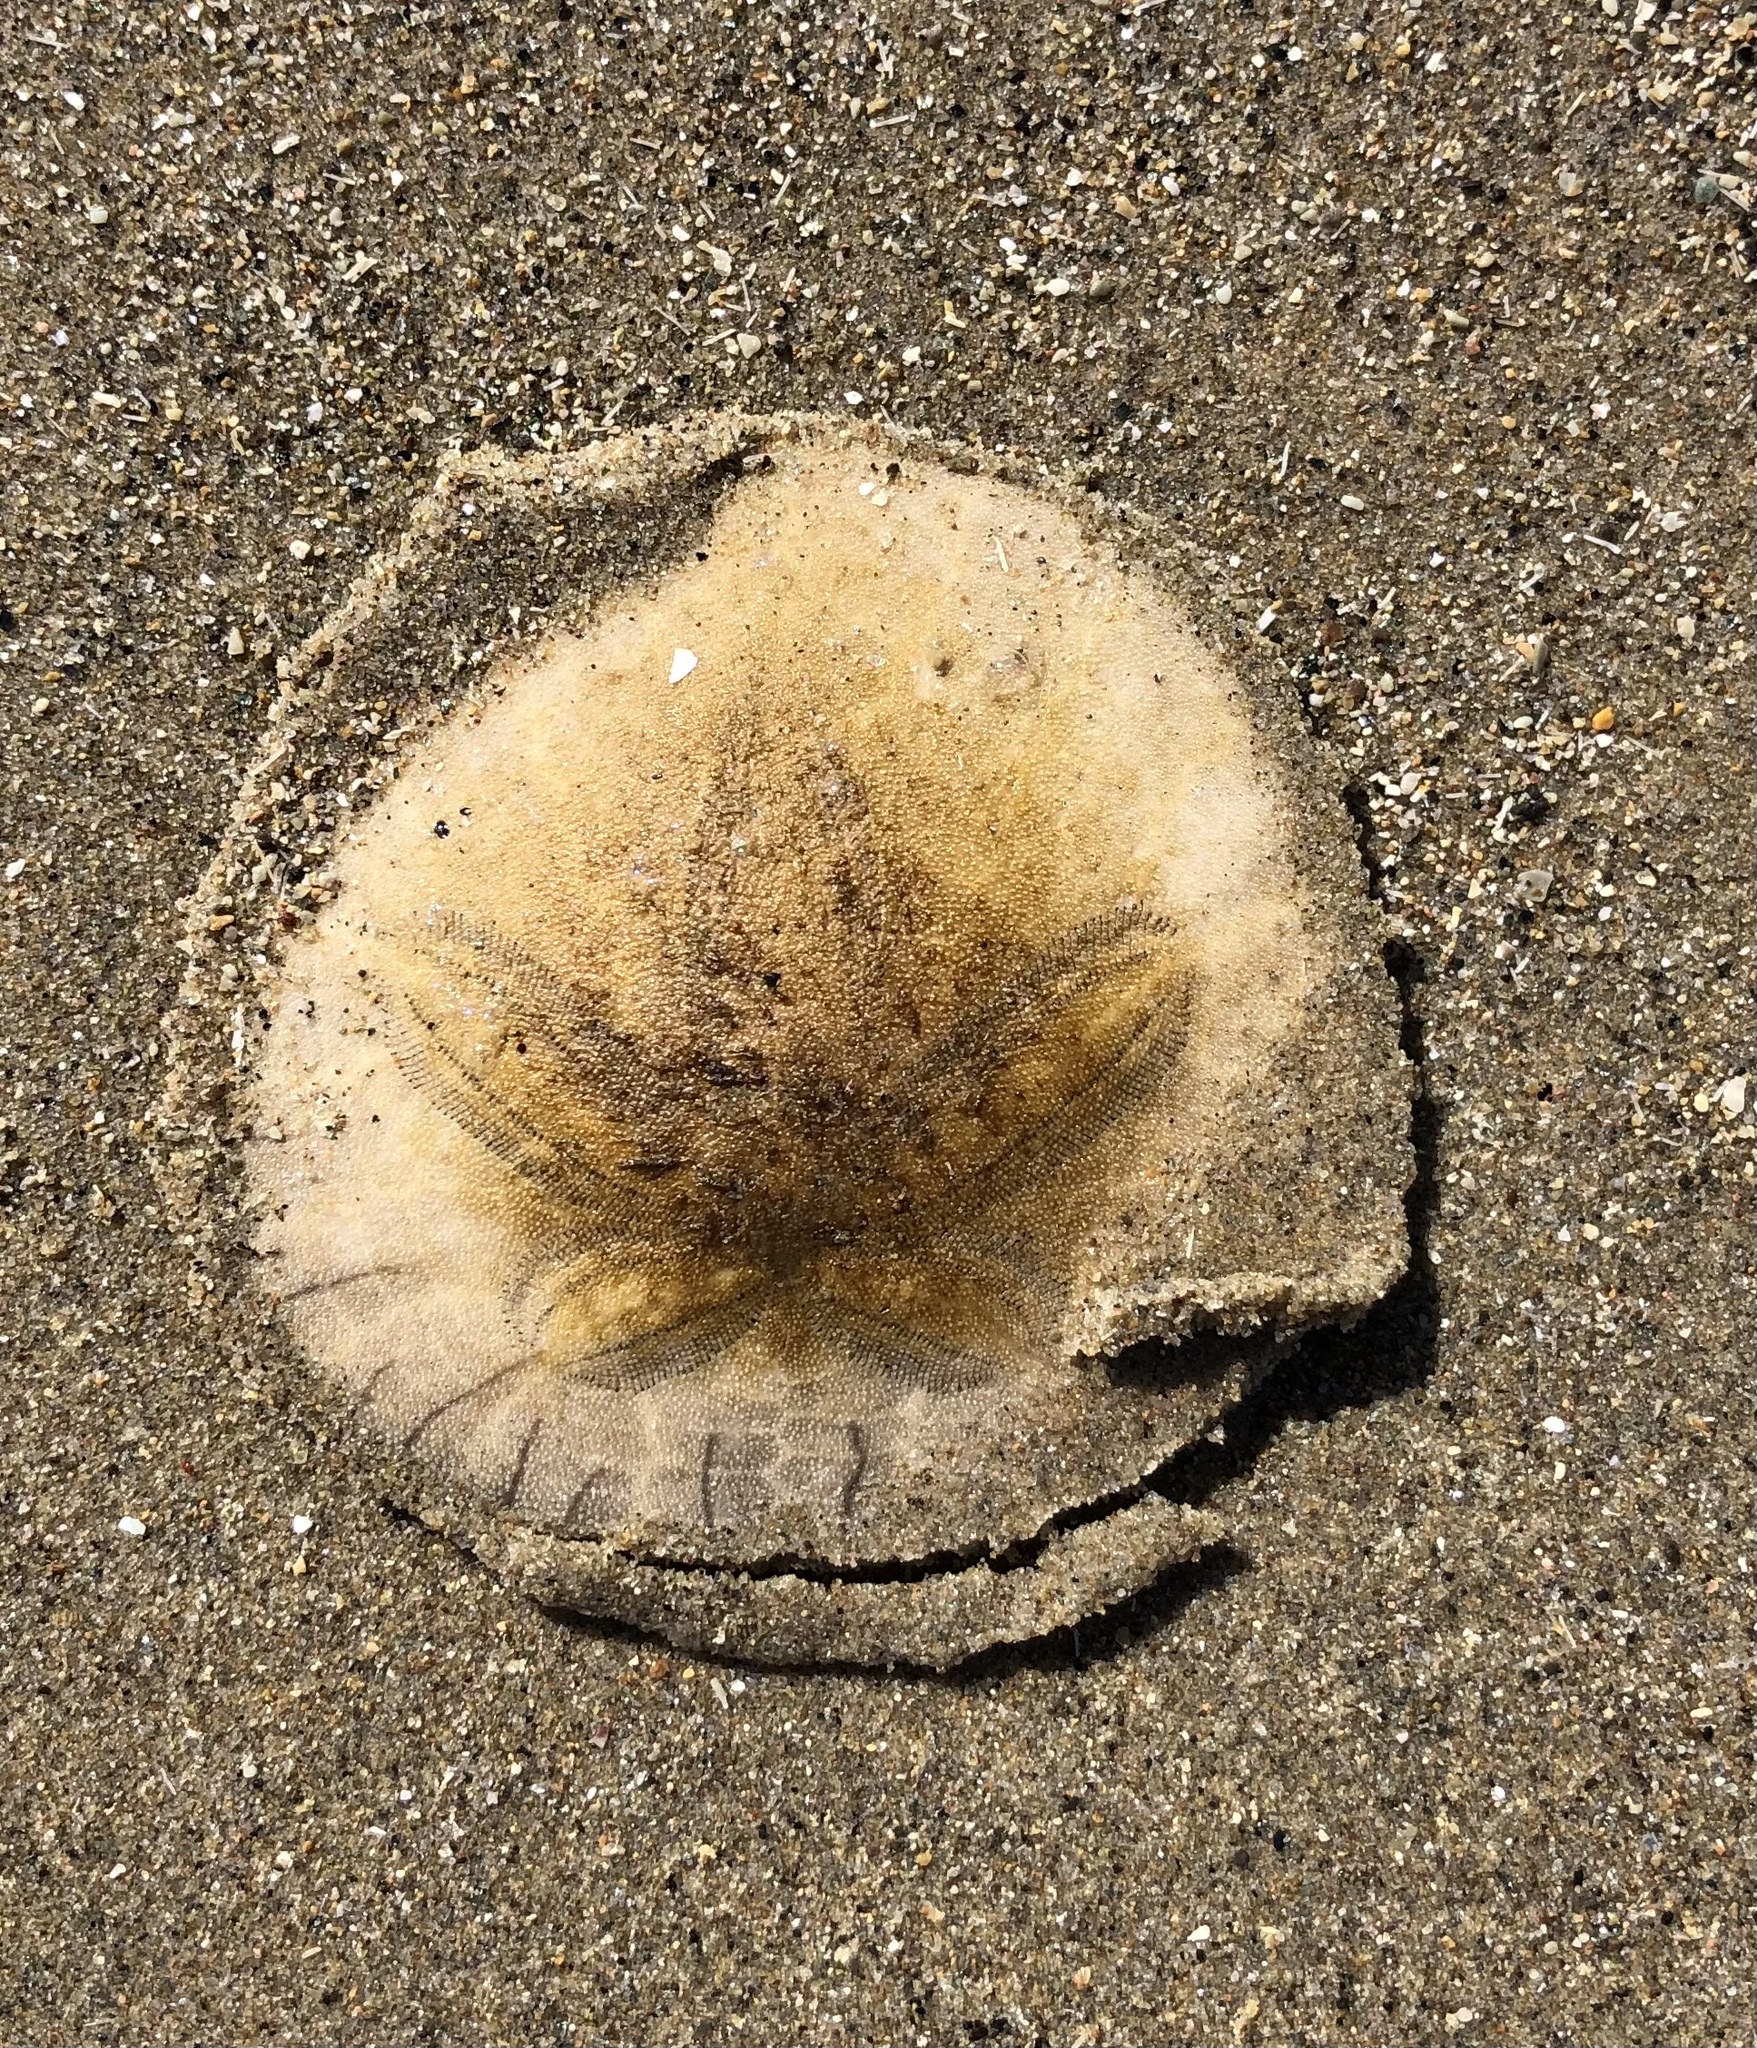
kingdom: Animalia
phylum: Echinodermata
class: Echinoidea
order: Echinolampadacea
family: Dendrasteridae
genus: Dendraster
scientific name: Dendraster excentricus
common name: Eccentric sand dollar sea urchin
